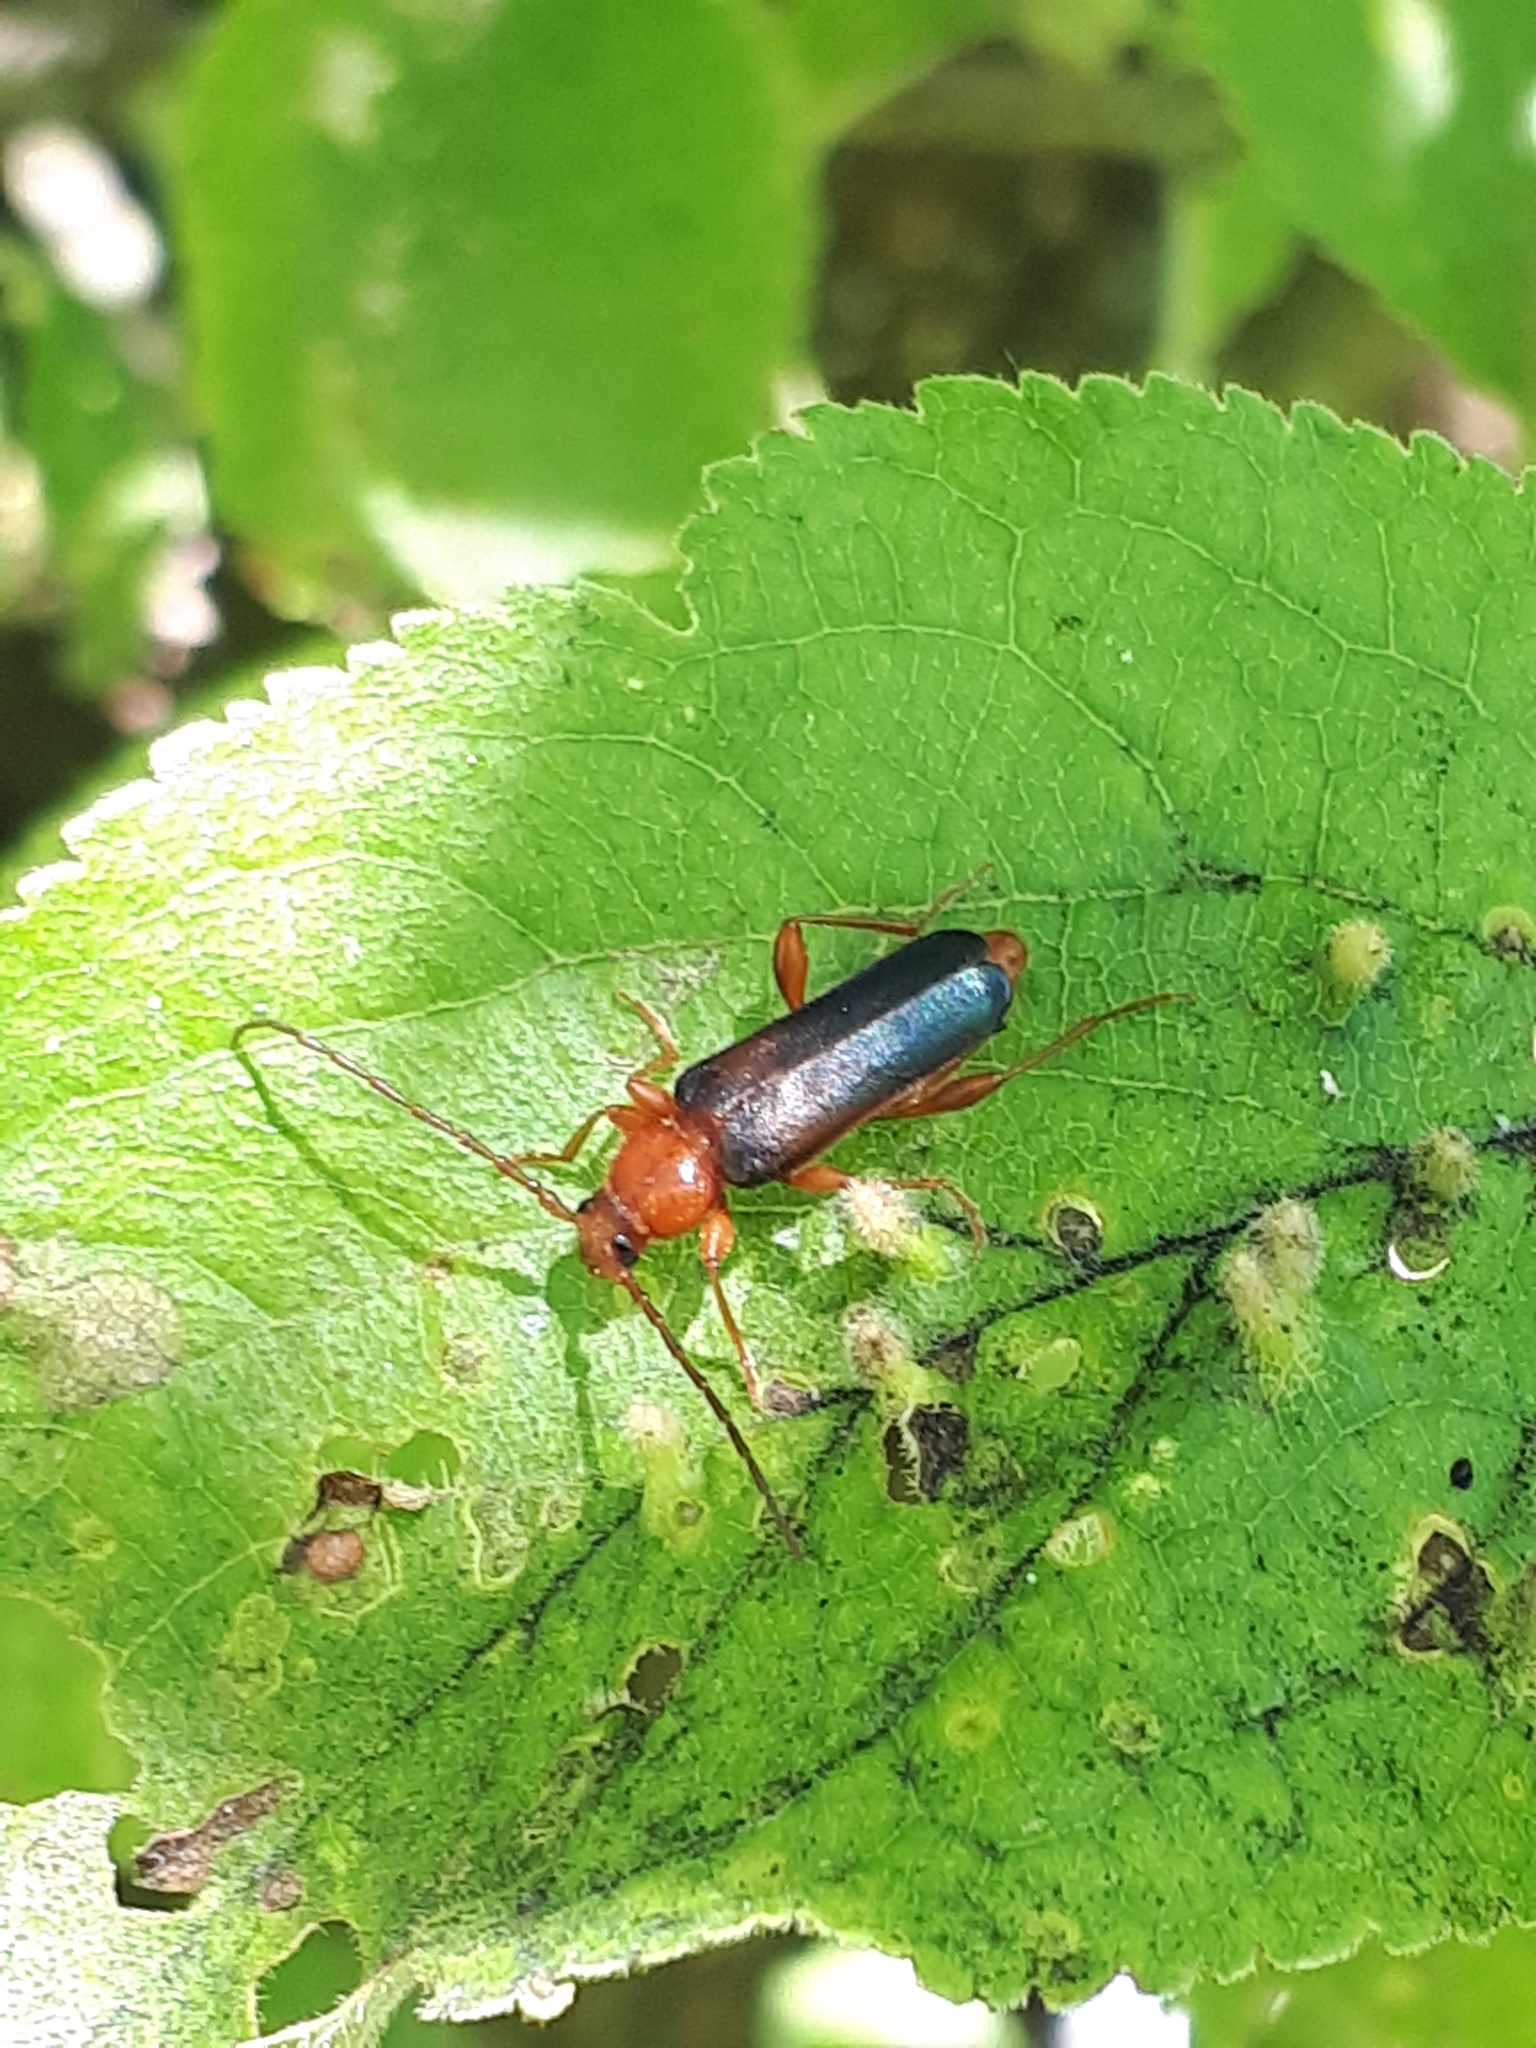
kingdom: Animalia
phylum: Arthropoda
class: Insecta
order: Coleoptera
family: Cerambycidae
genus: Phymatodes
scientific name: Phymatodes testaceus
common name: Long-horned beetle
